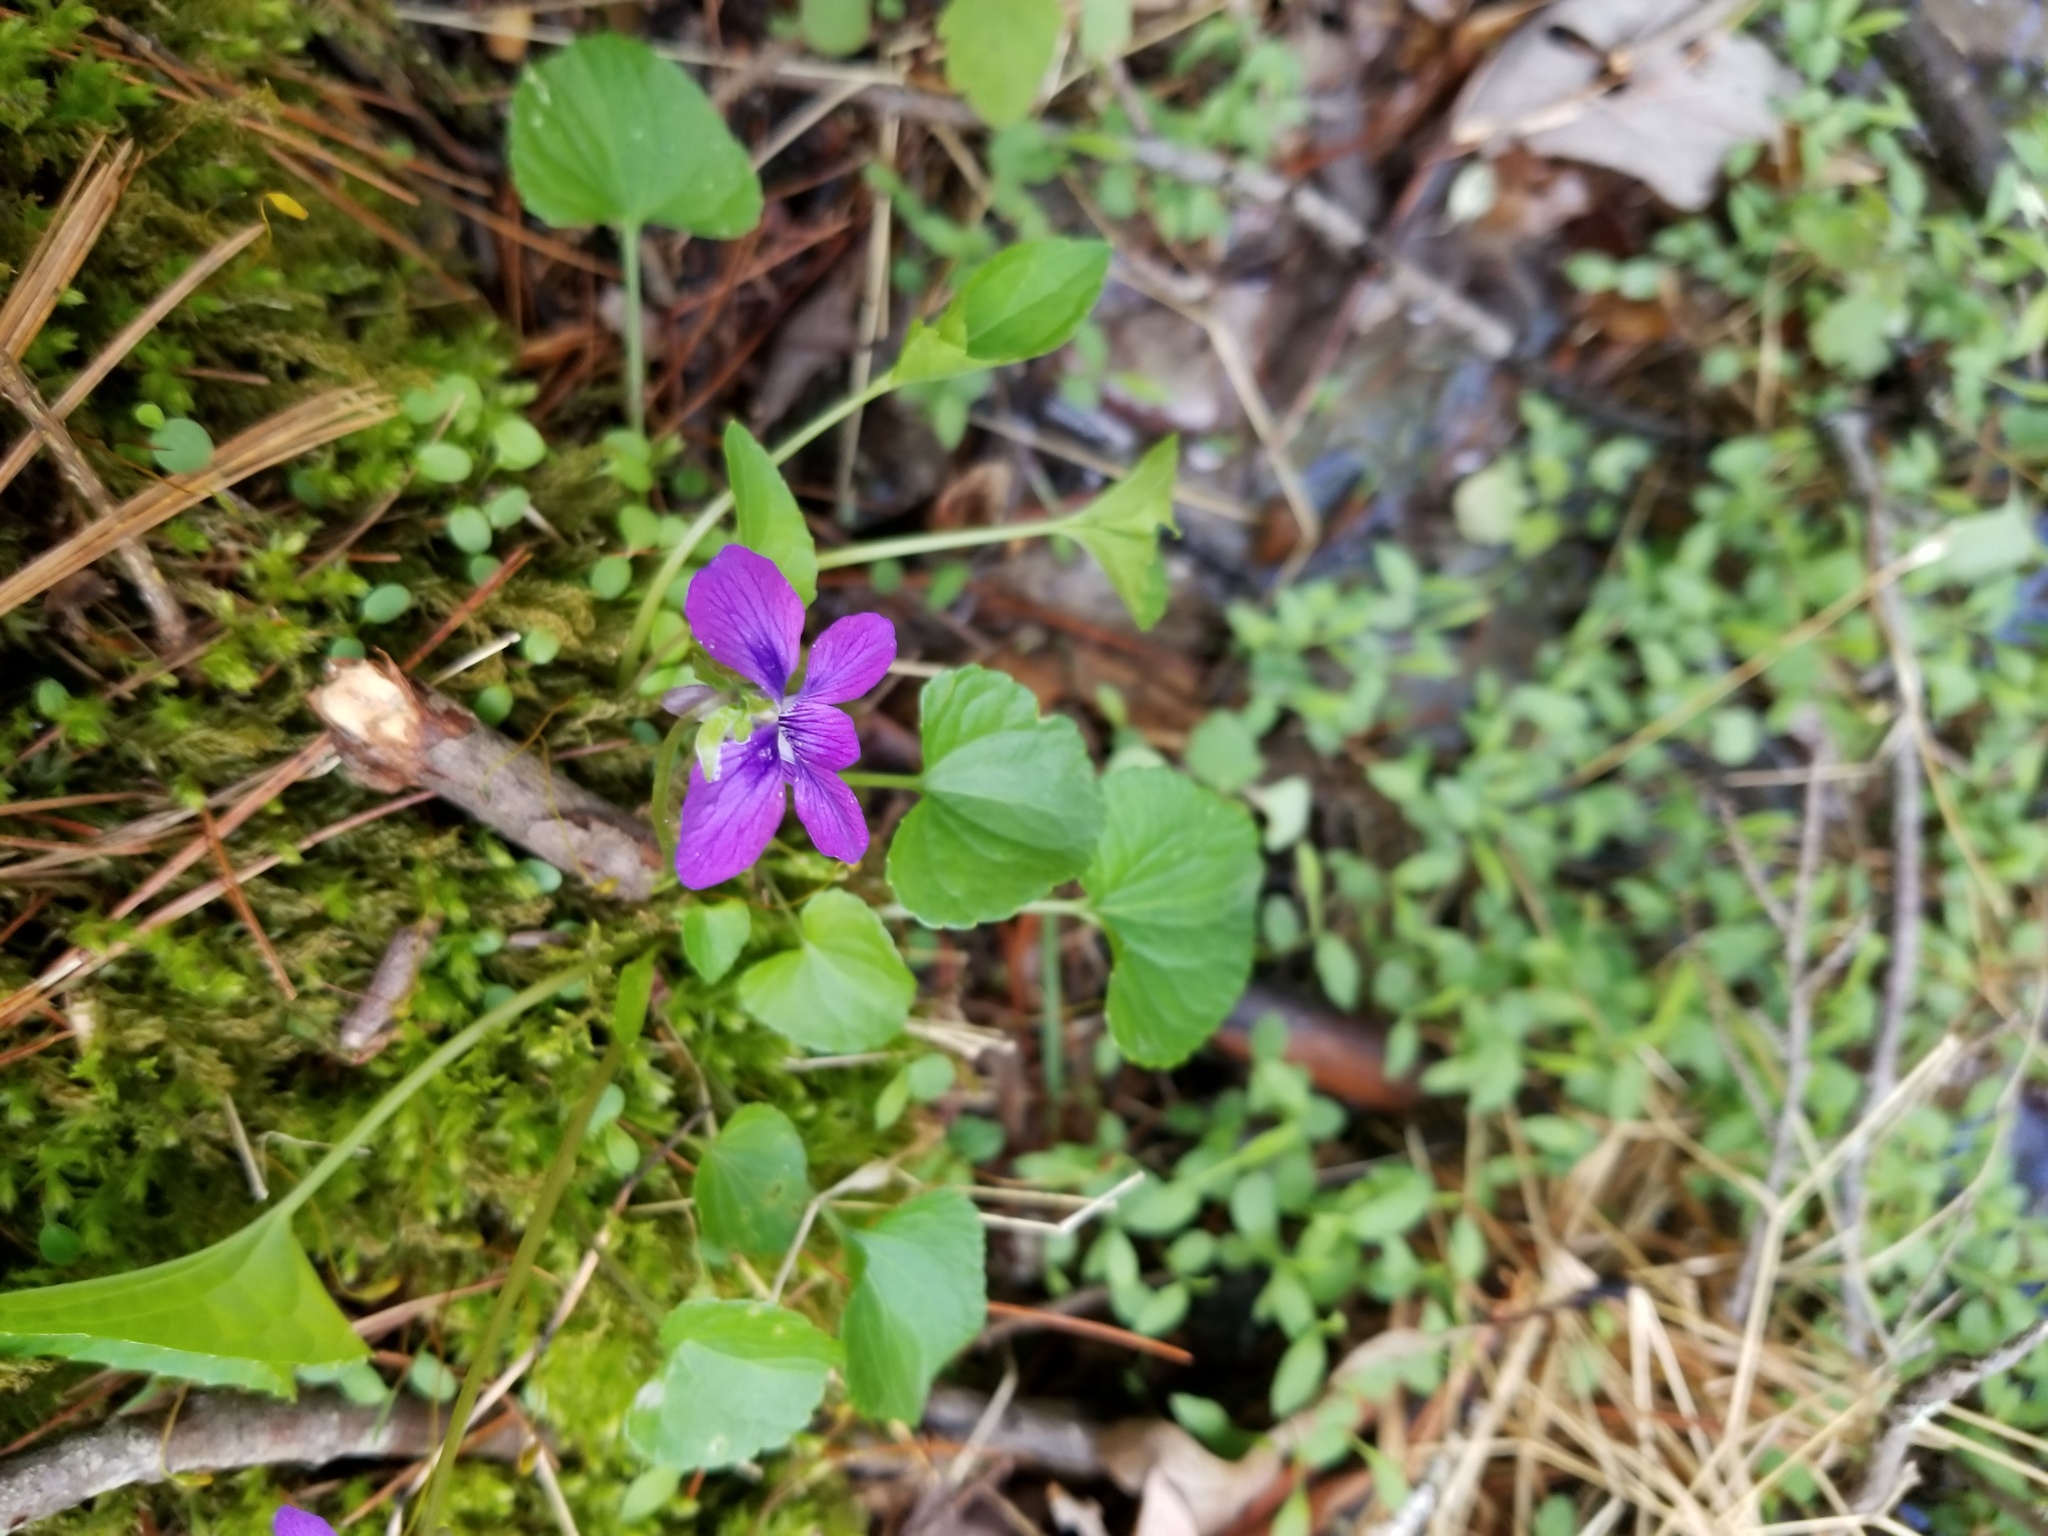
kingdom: Plantae
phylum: Tracheophyta
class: Magnoliopsida
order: Malpighiales
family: Violaceae
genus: Viola
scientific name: Viola cucullata
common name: Marsh blue violet
